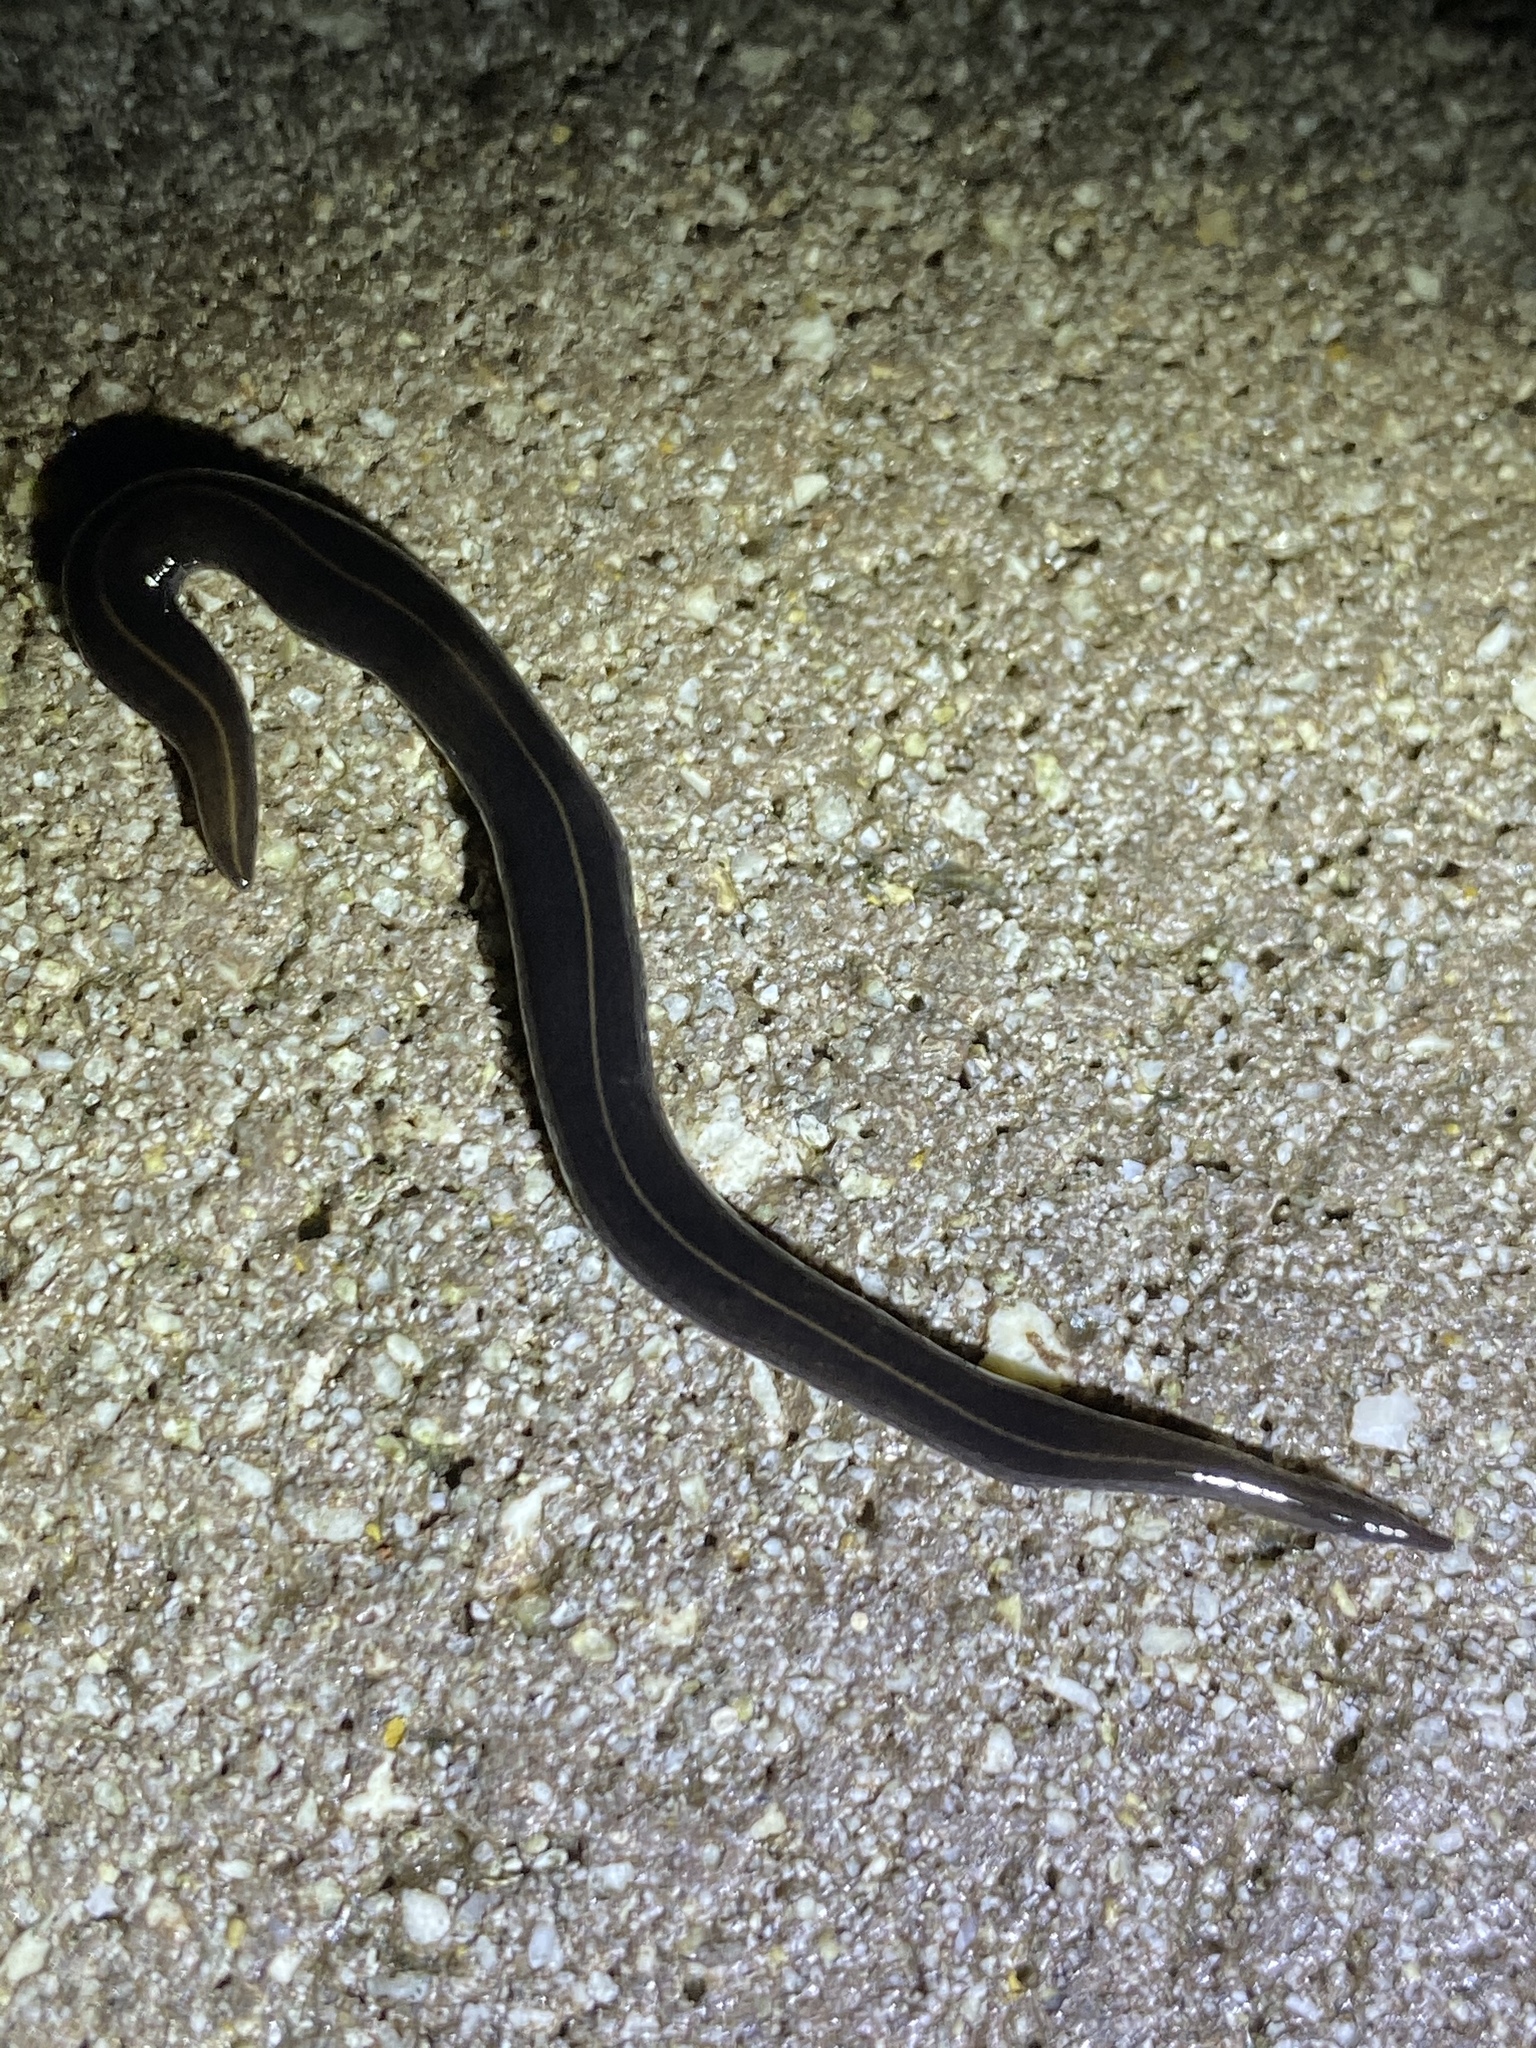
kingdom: Animalia
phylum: Platyhelminthes
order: Tricladida
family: Geoplanidae
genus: Platydemus
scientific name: Platydemus manokwari
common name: New guinea flatworm
